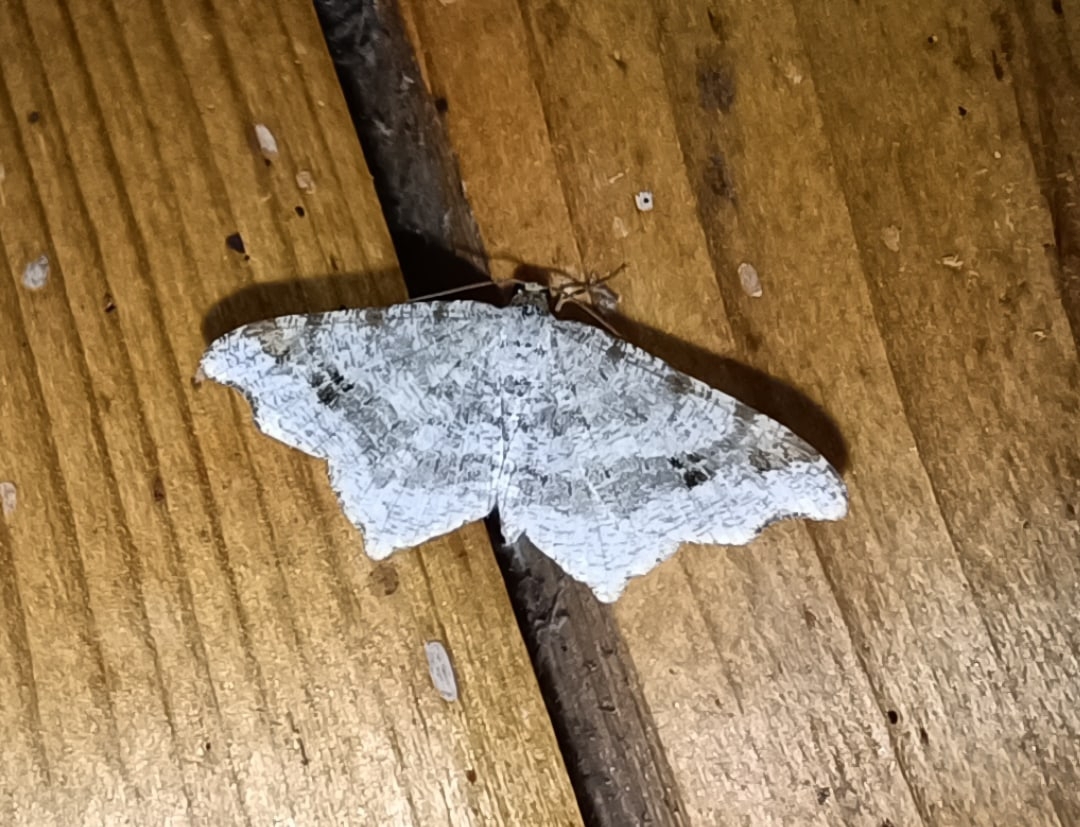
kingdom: Animalia
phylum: Arthropoda
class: Insecta
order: Lepidoptera
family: Geometridae
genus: Macaria
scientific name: Macaria alternata
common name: Sharp-angled peacock
